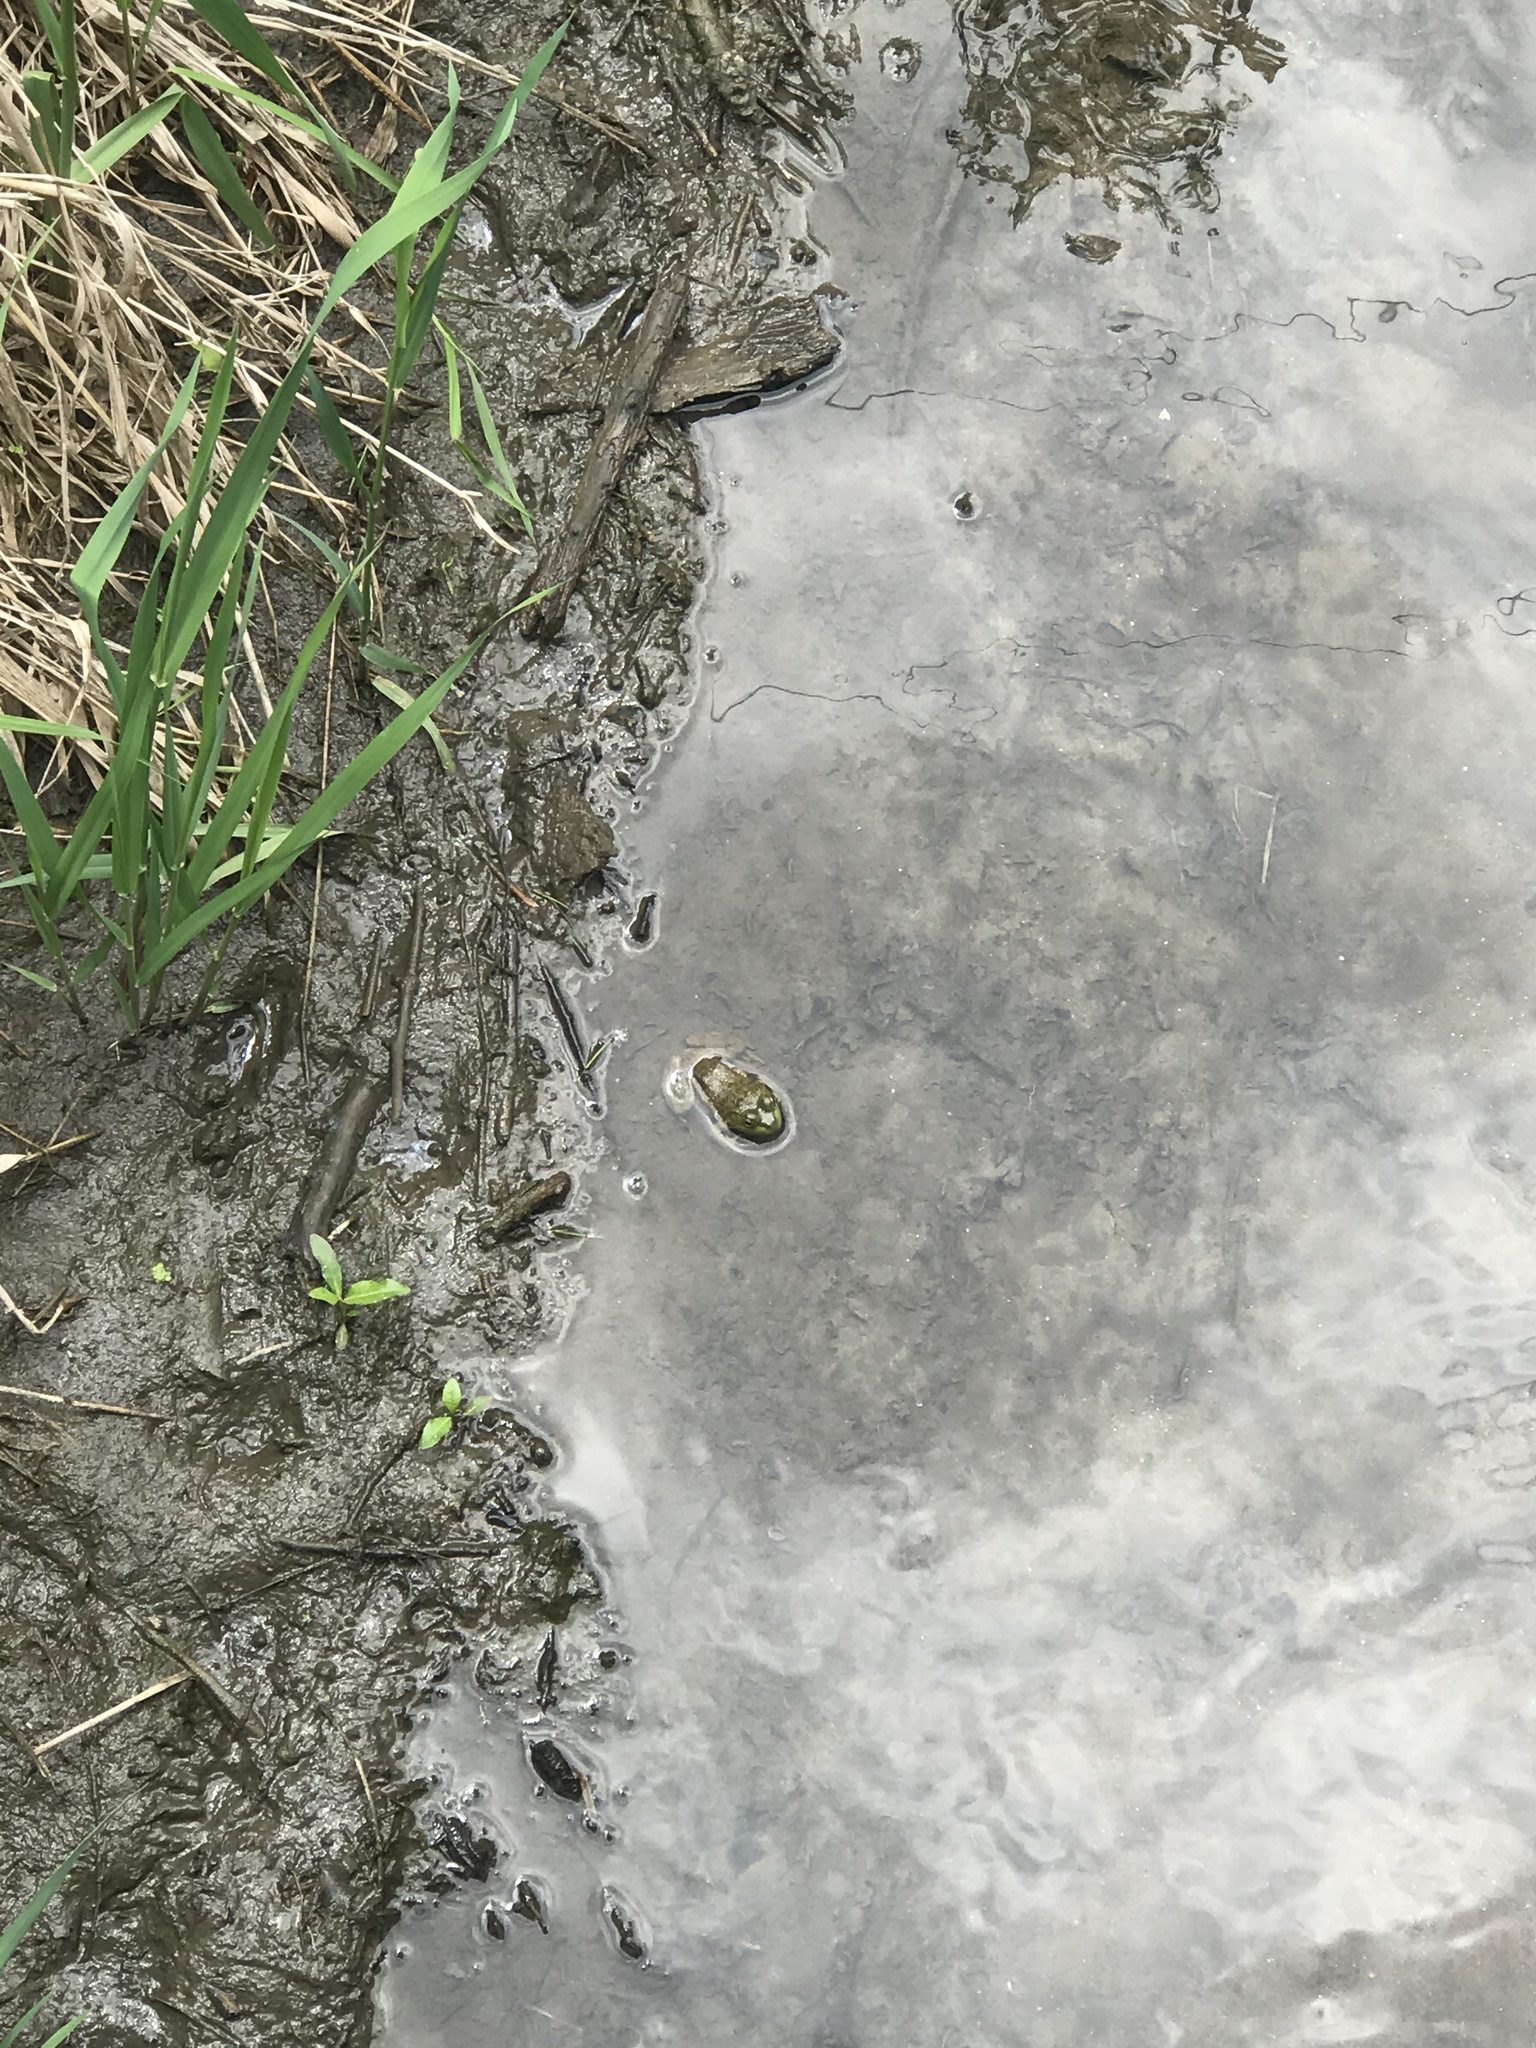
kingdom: Animalia
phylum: Chordata
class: Amphibia
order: Anura
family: Ranidae
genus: Lithobates
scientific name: Lithobates catesbeianus
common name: American bullfrog
